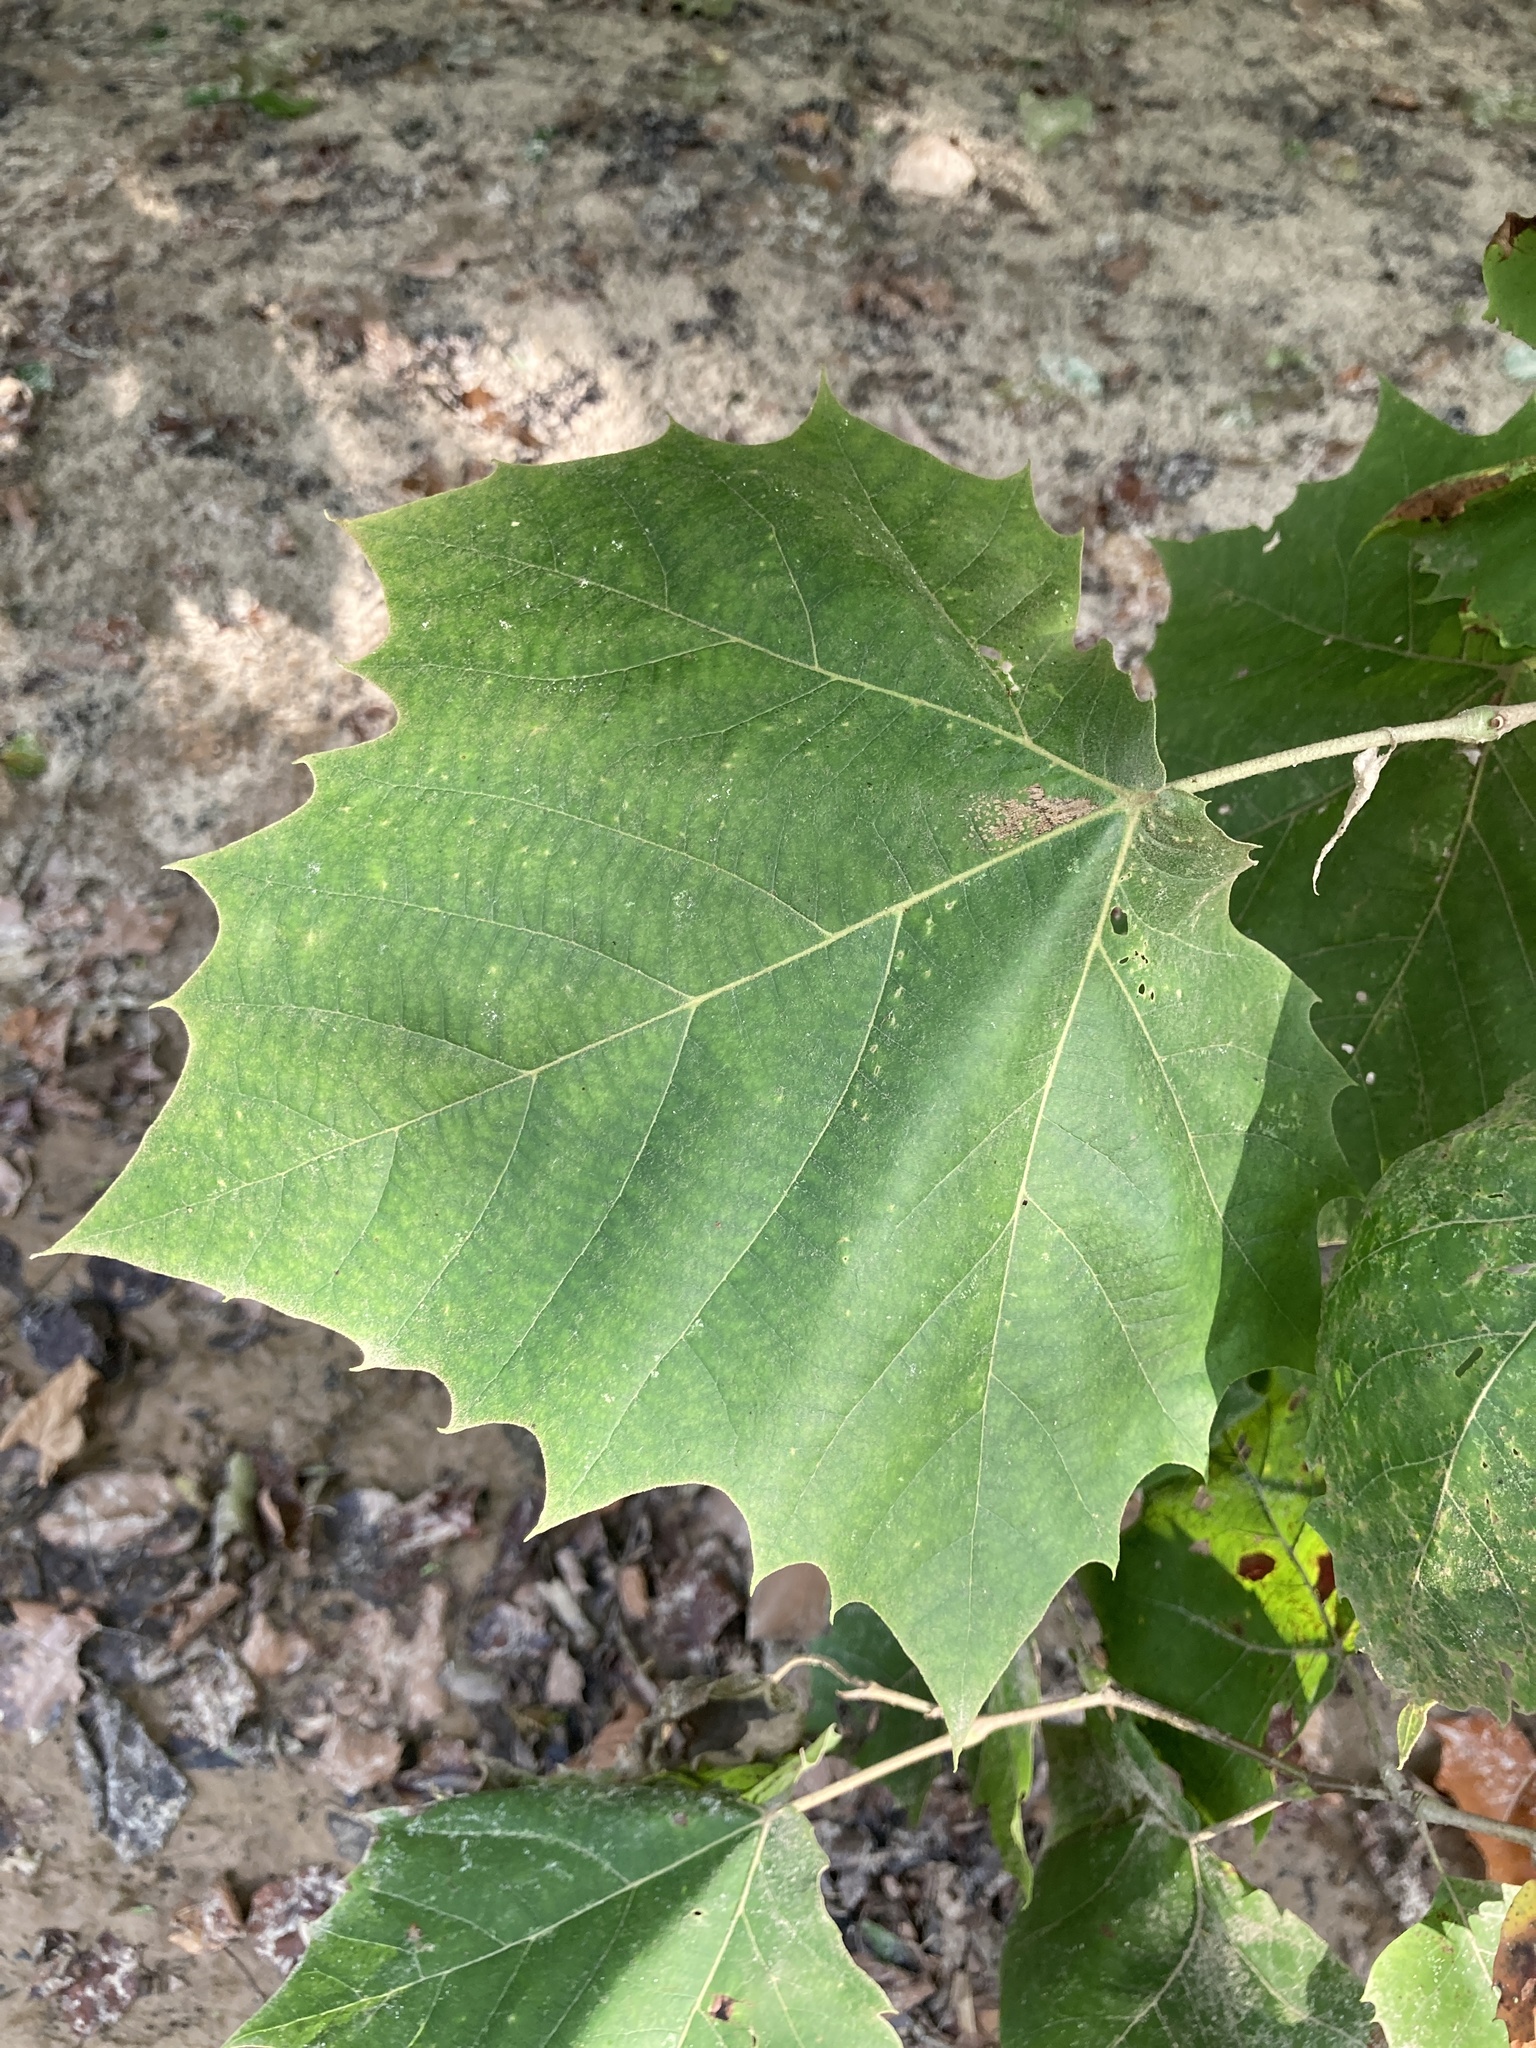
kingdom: Plantae
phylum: Tracheophyta
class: Magnoliopsida
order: Proteales
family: Platanaceae
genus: Platanus
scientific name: Platanus occidentalis
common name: American sycamore
